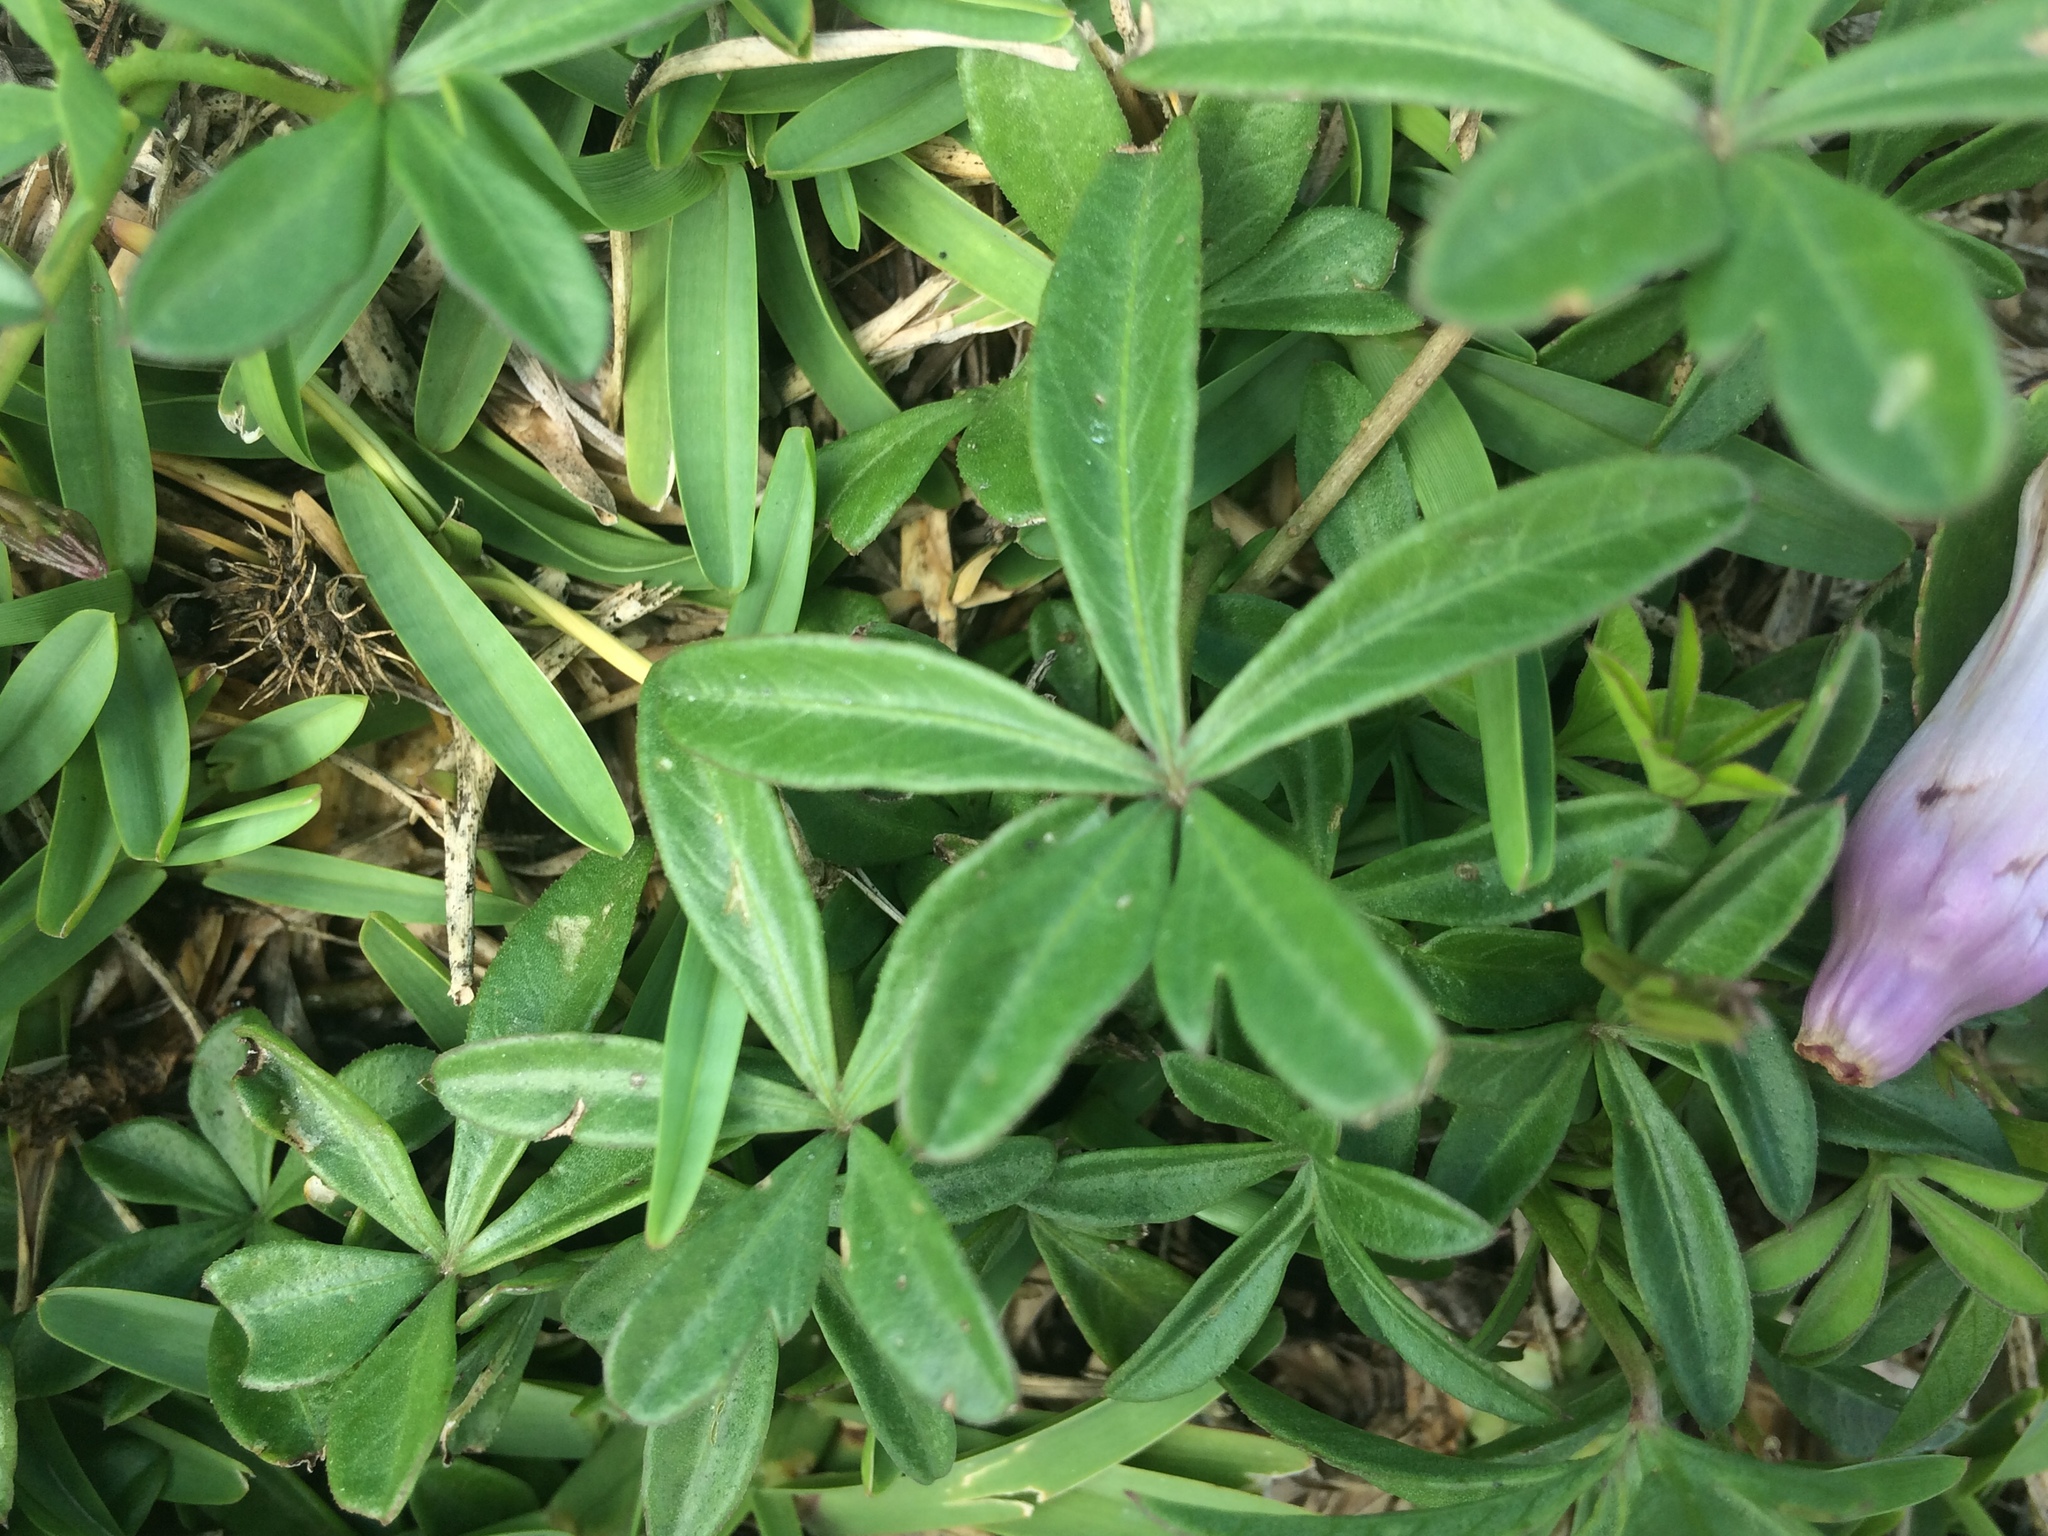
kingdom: Plantae
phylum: Tracheophyta
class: Magnoliopsida
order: Solanales
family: Convolvulaceae
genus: Ipomoea
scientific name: Ipomoea cairica
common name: Mile a minute vine
